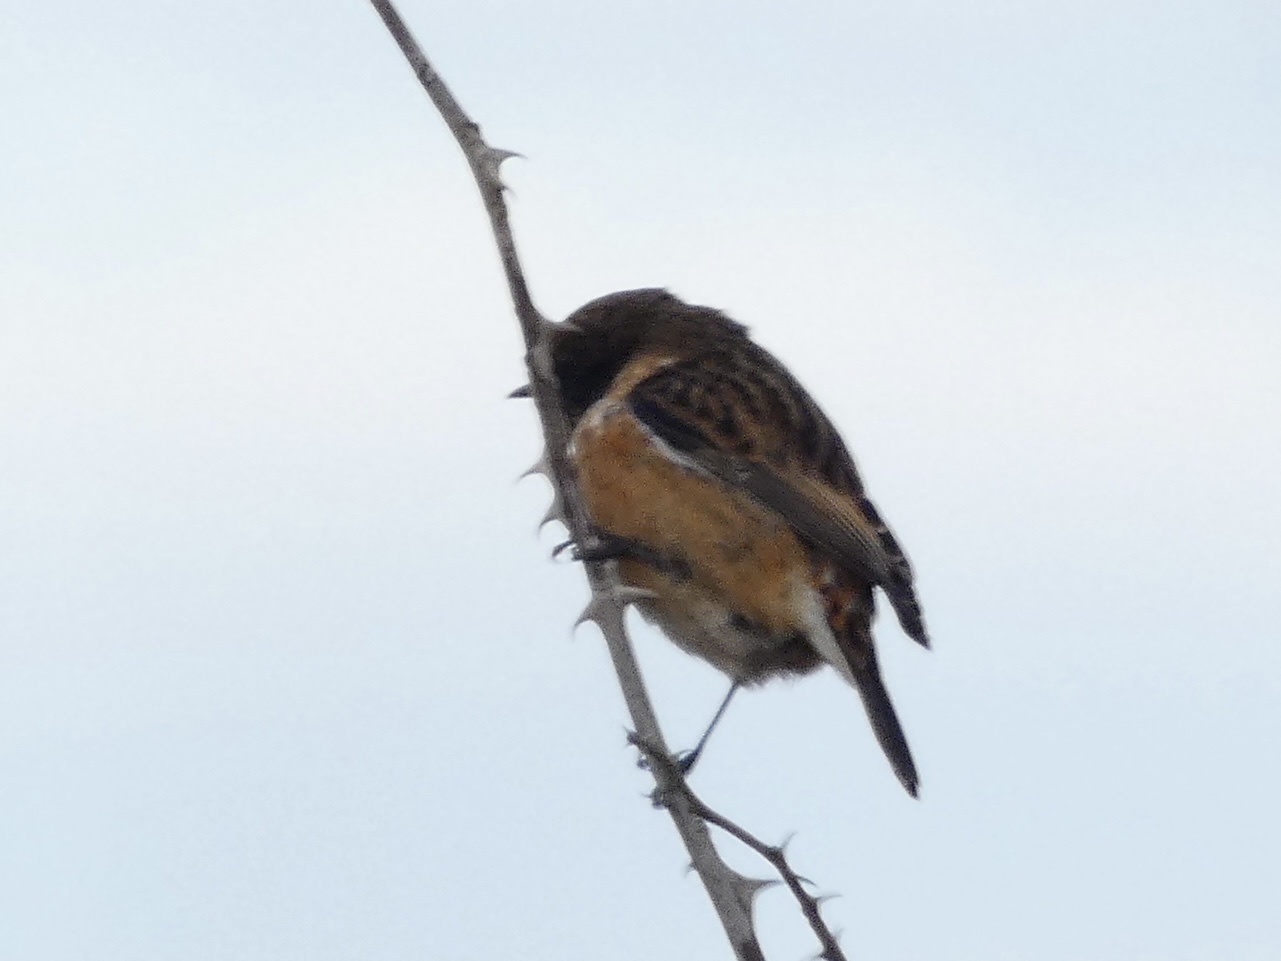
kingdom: Animalia
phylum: Chordata
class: Aves
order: Passeriformes
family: Muscicapidae
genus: Saxicola
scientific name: Saxicola rubicola
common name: European stonechat
